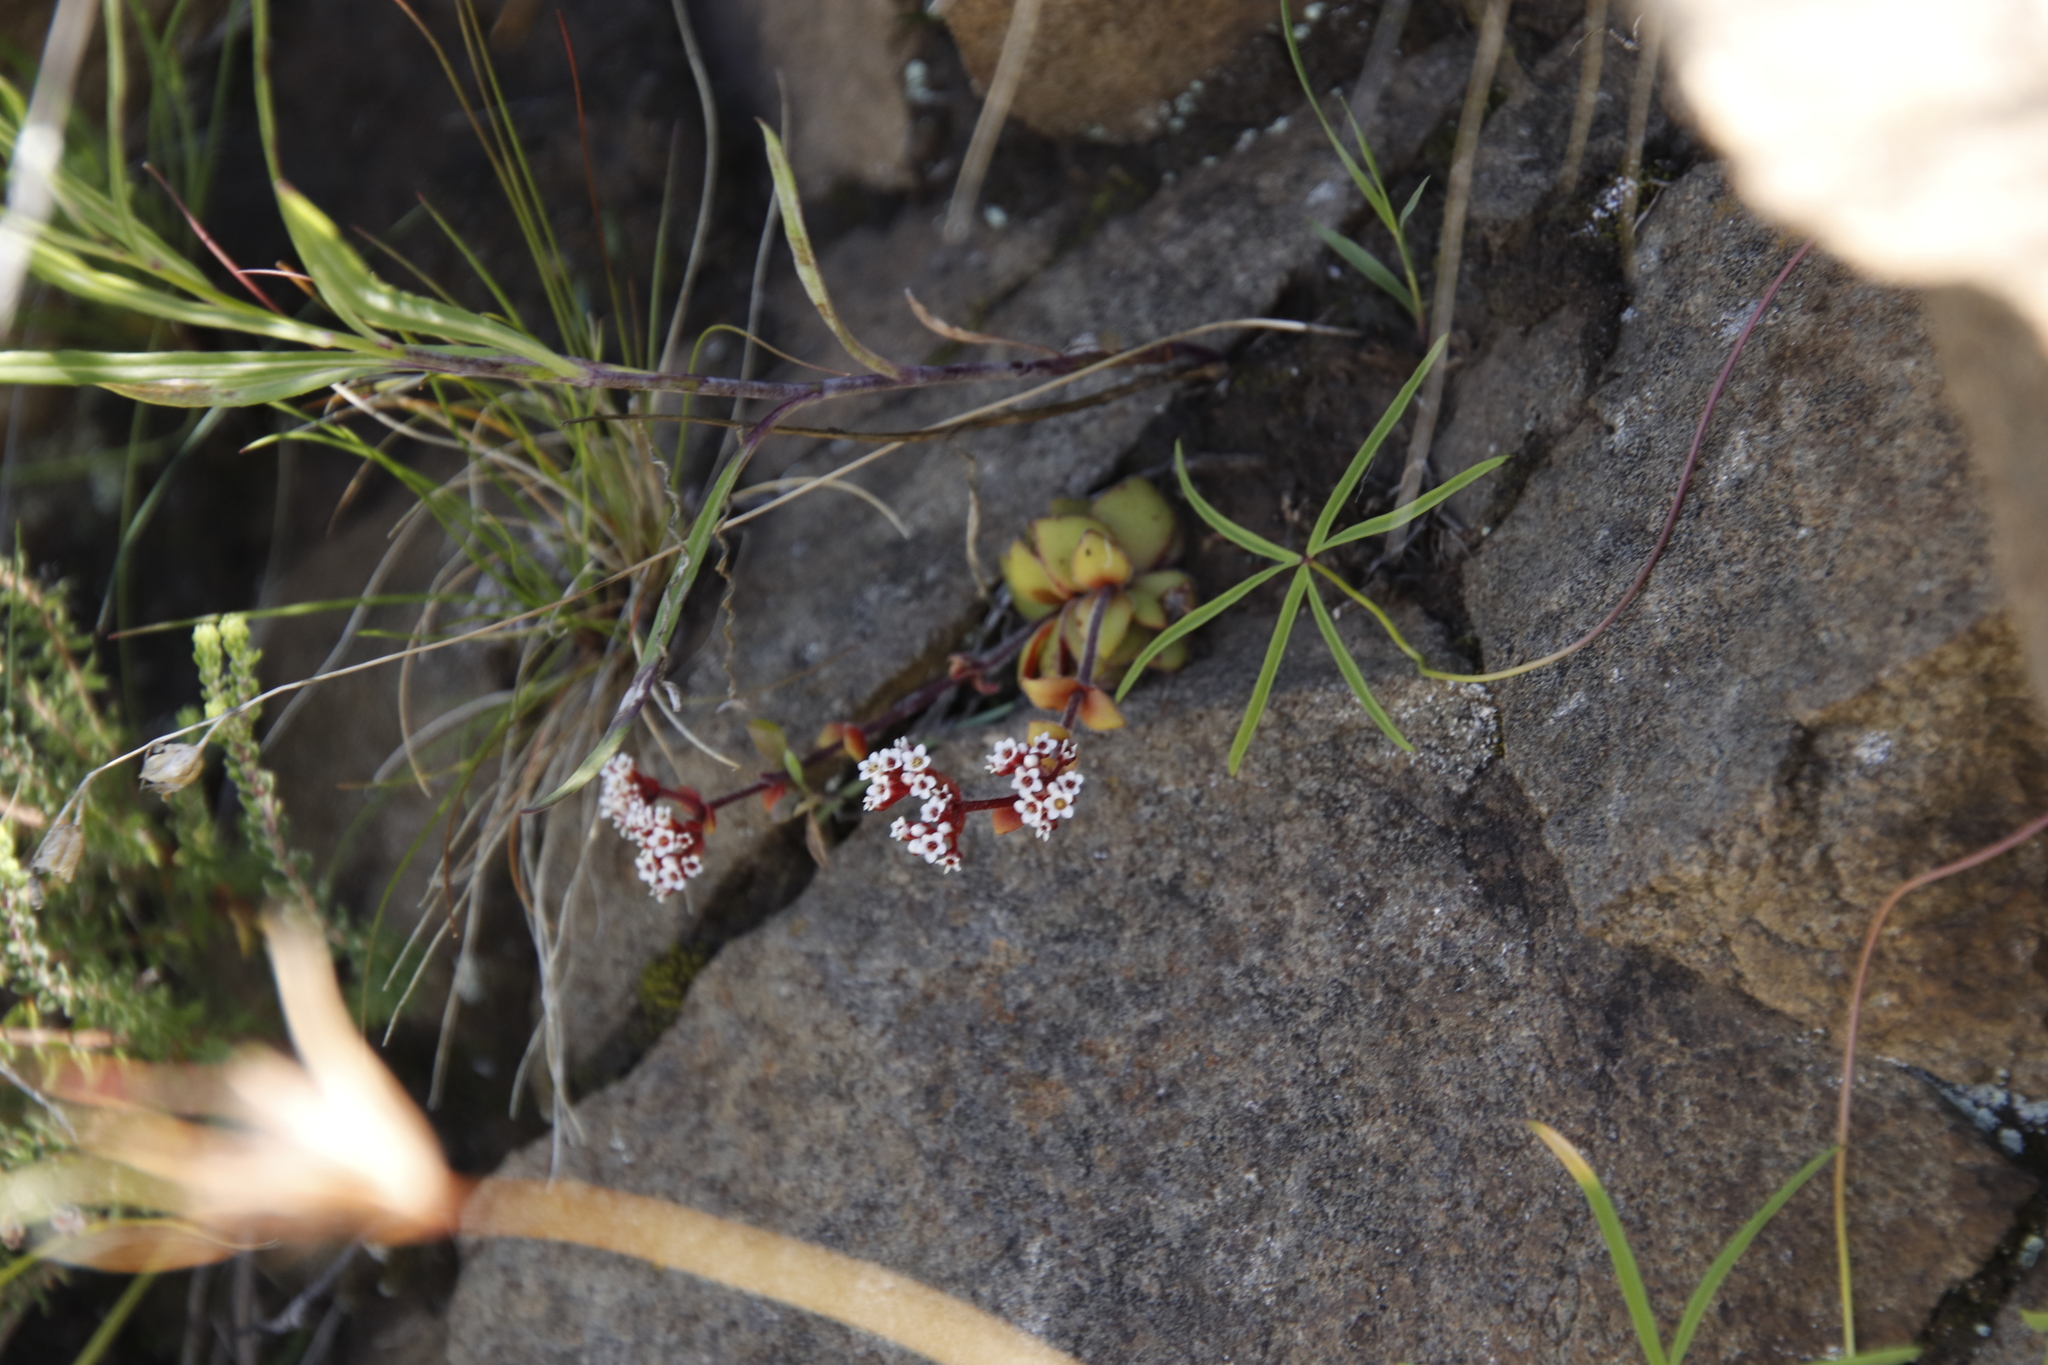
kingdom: Plantae
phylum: Tracheophyta
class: Magnoliopsida
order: Saxifragales
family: Crassulaceae
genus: Crassula
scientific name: Crassula natalensis
